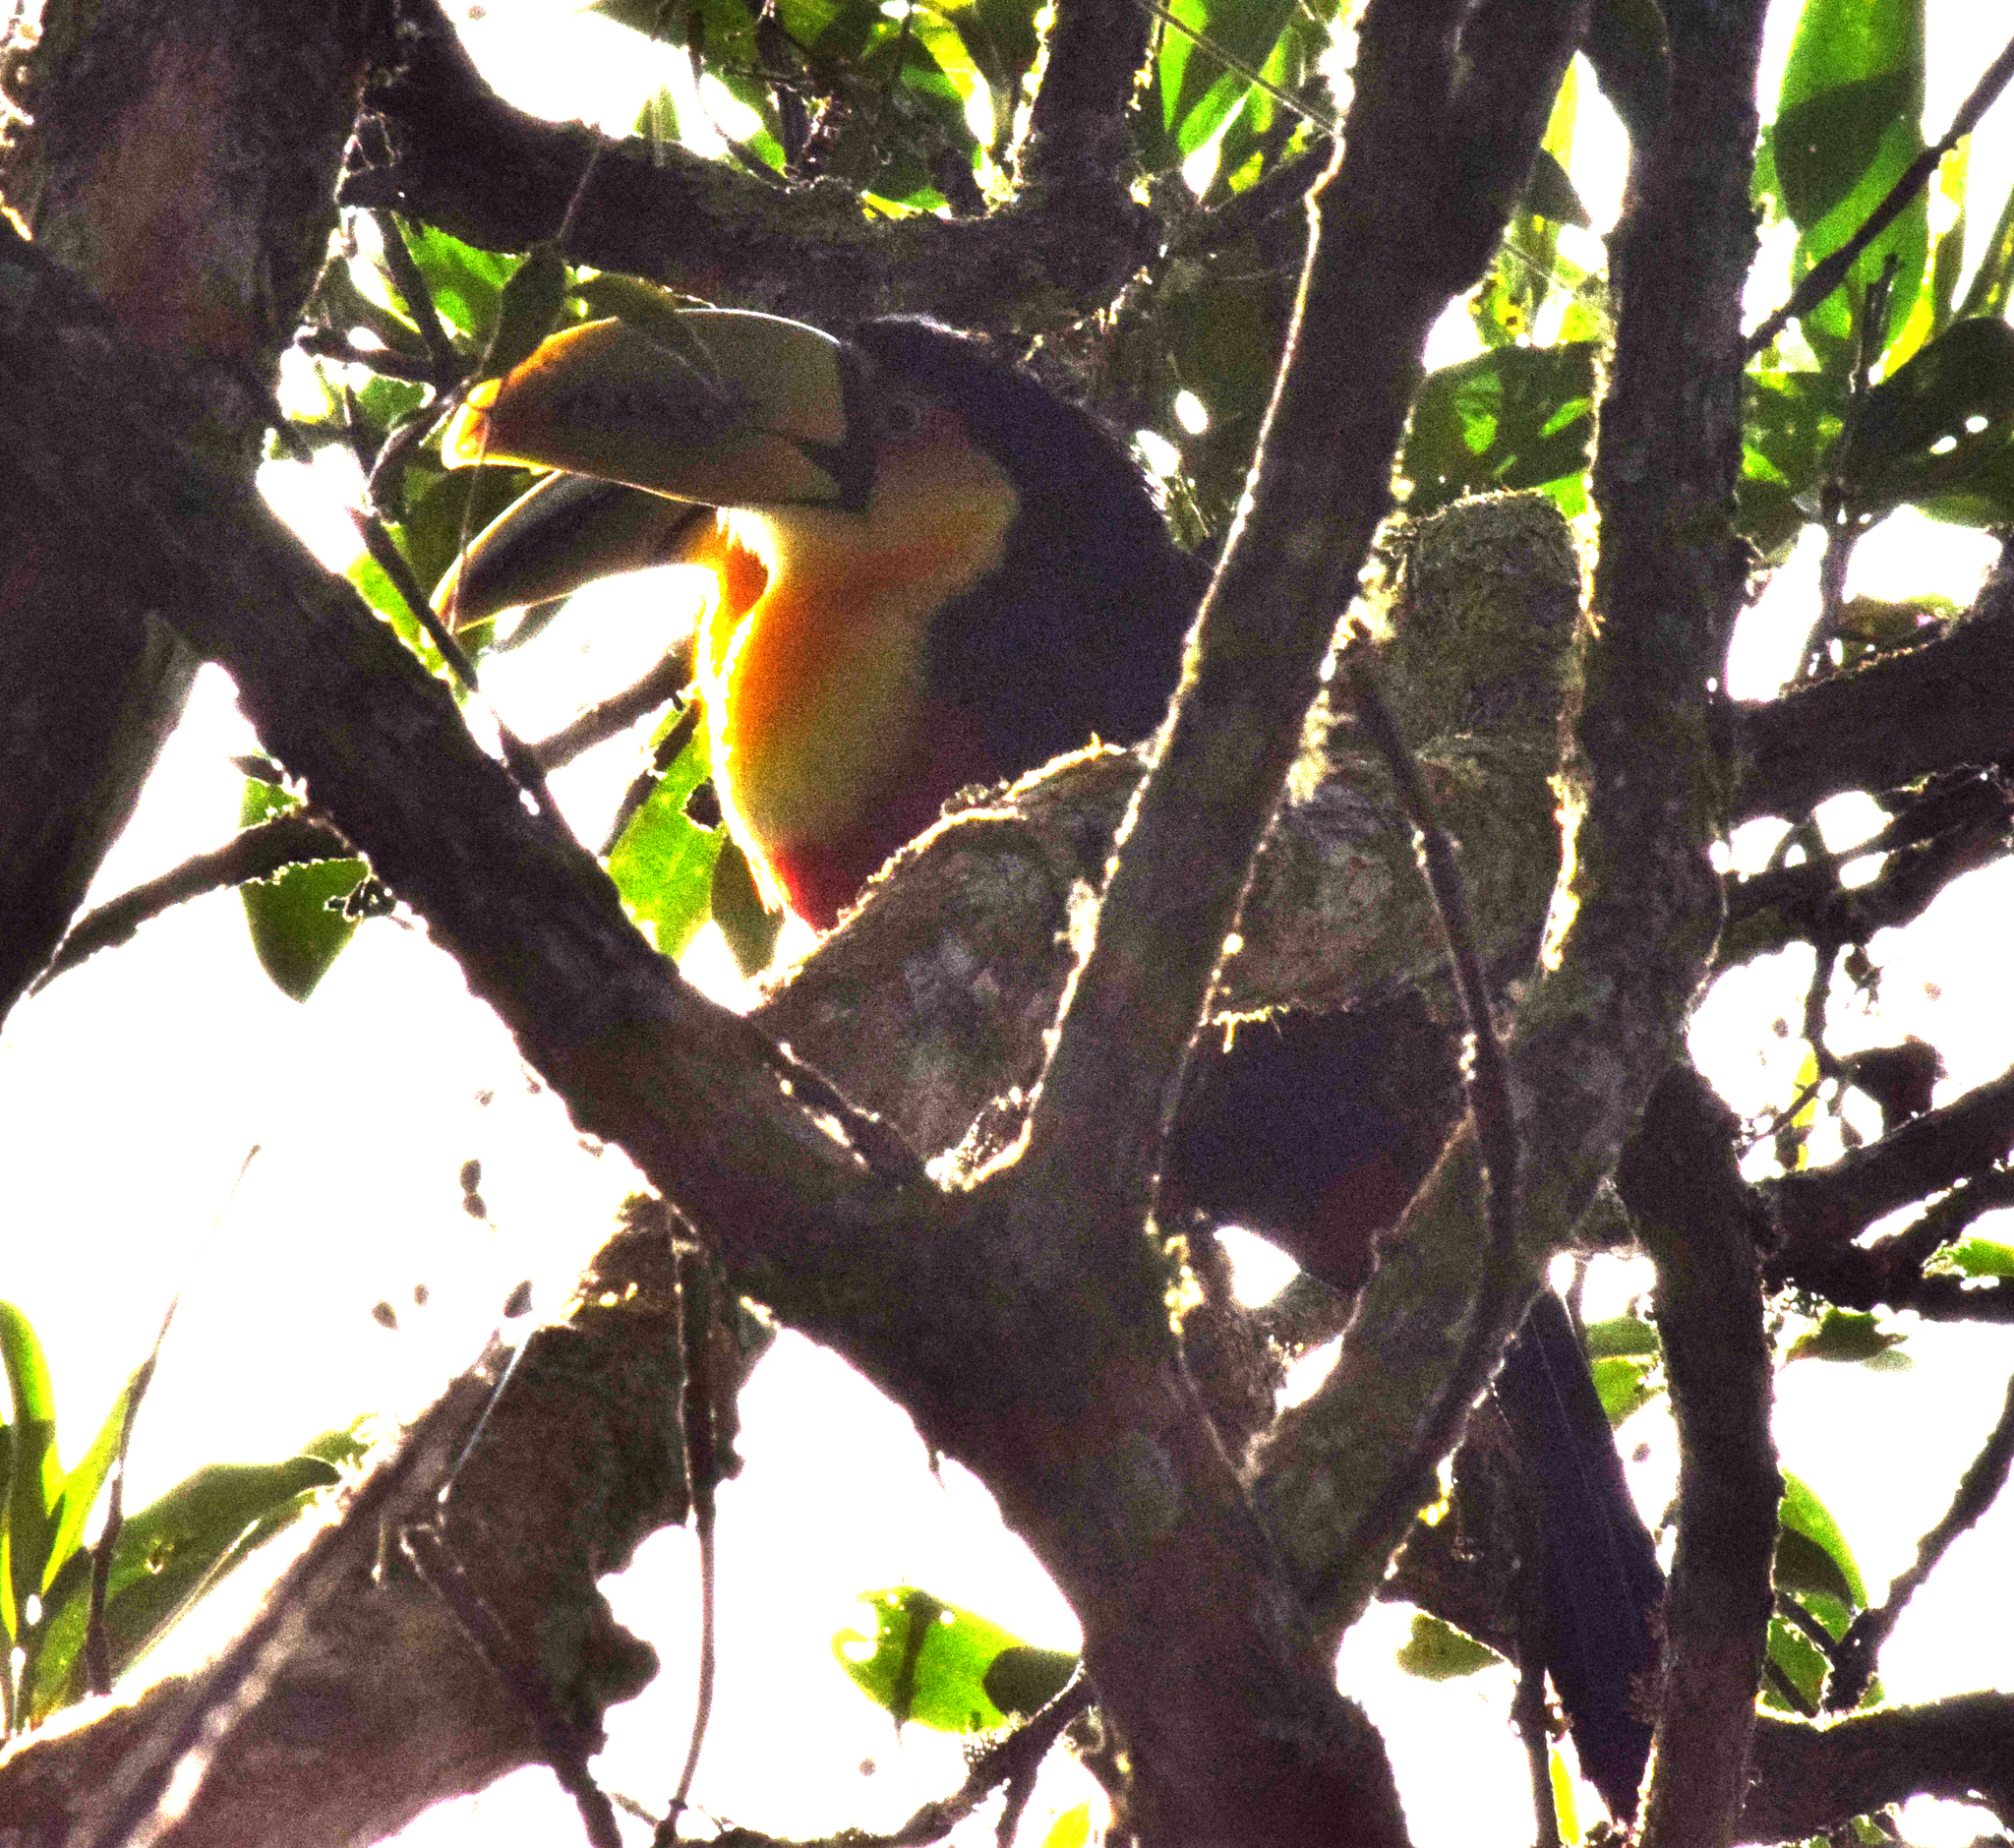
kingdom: Animalia
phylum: Chordata
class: Aves
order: Piciformes
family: Ramphastidae
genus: Ramphastos
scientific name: Ramphastos dicolorus
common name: Green-billed toucan
